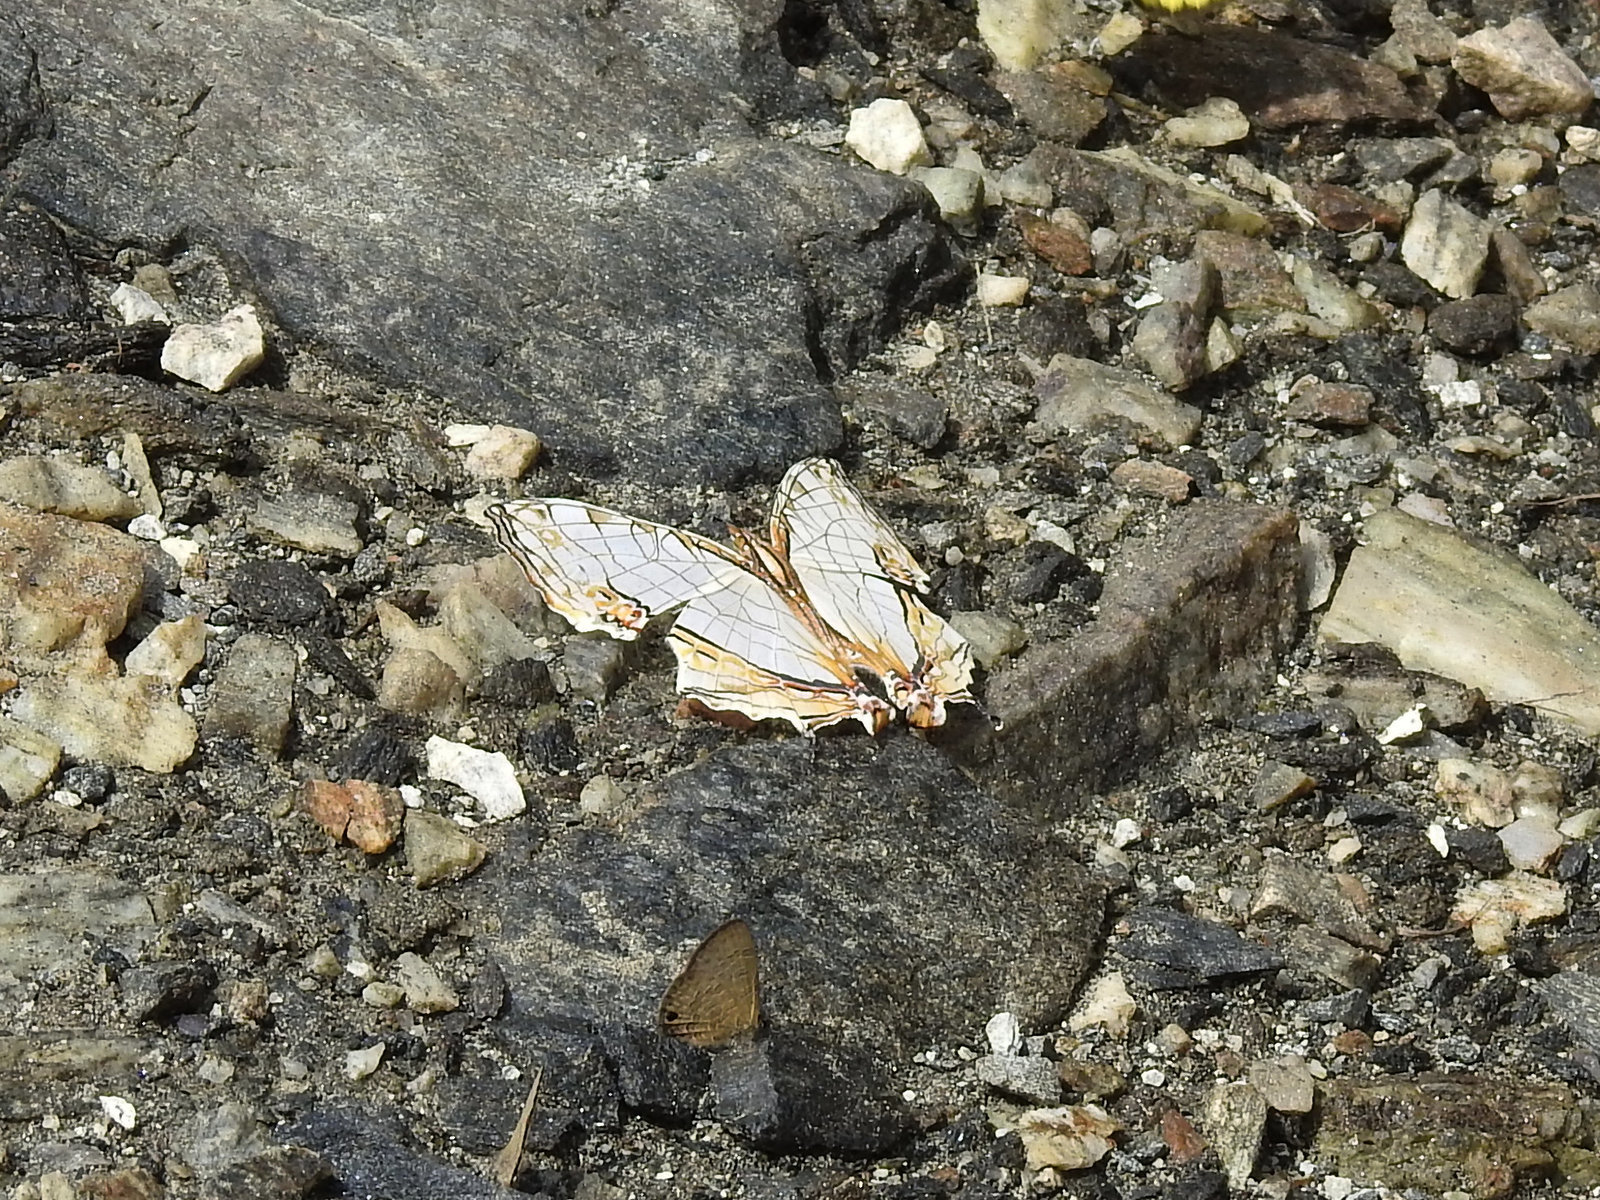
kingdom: Animalia
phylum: Arthropoda
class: Insecta
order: Lepidoptera
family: Nymphalidae
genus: Cyrestis
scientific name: Cyrestis thyodamas
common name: Common mapwing
